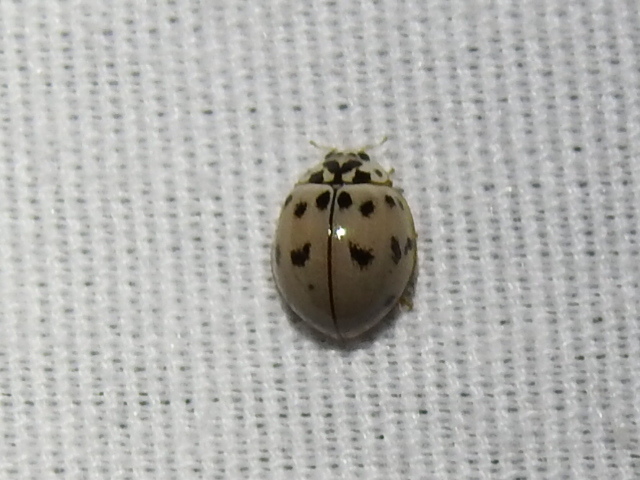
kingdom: Animalia
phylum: Arthropoda
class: Insecta
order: Coleoptera
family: Coccinellidae
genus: Olla
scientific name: Olla v-nigrum
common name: Ashy gray lady beetle
